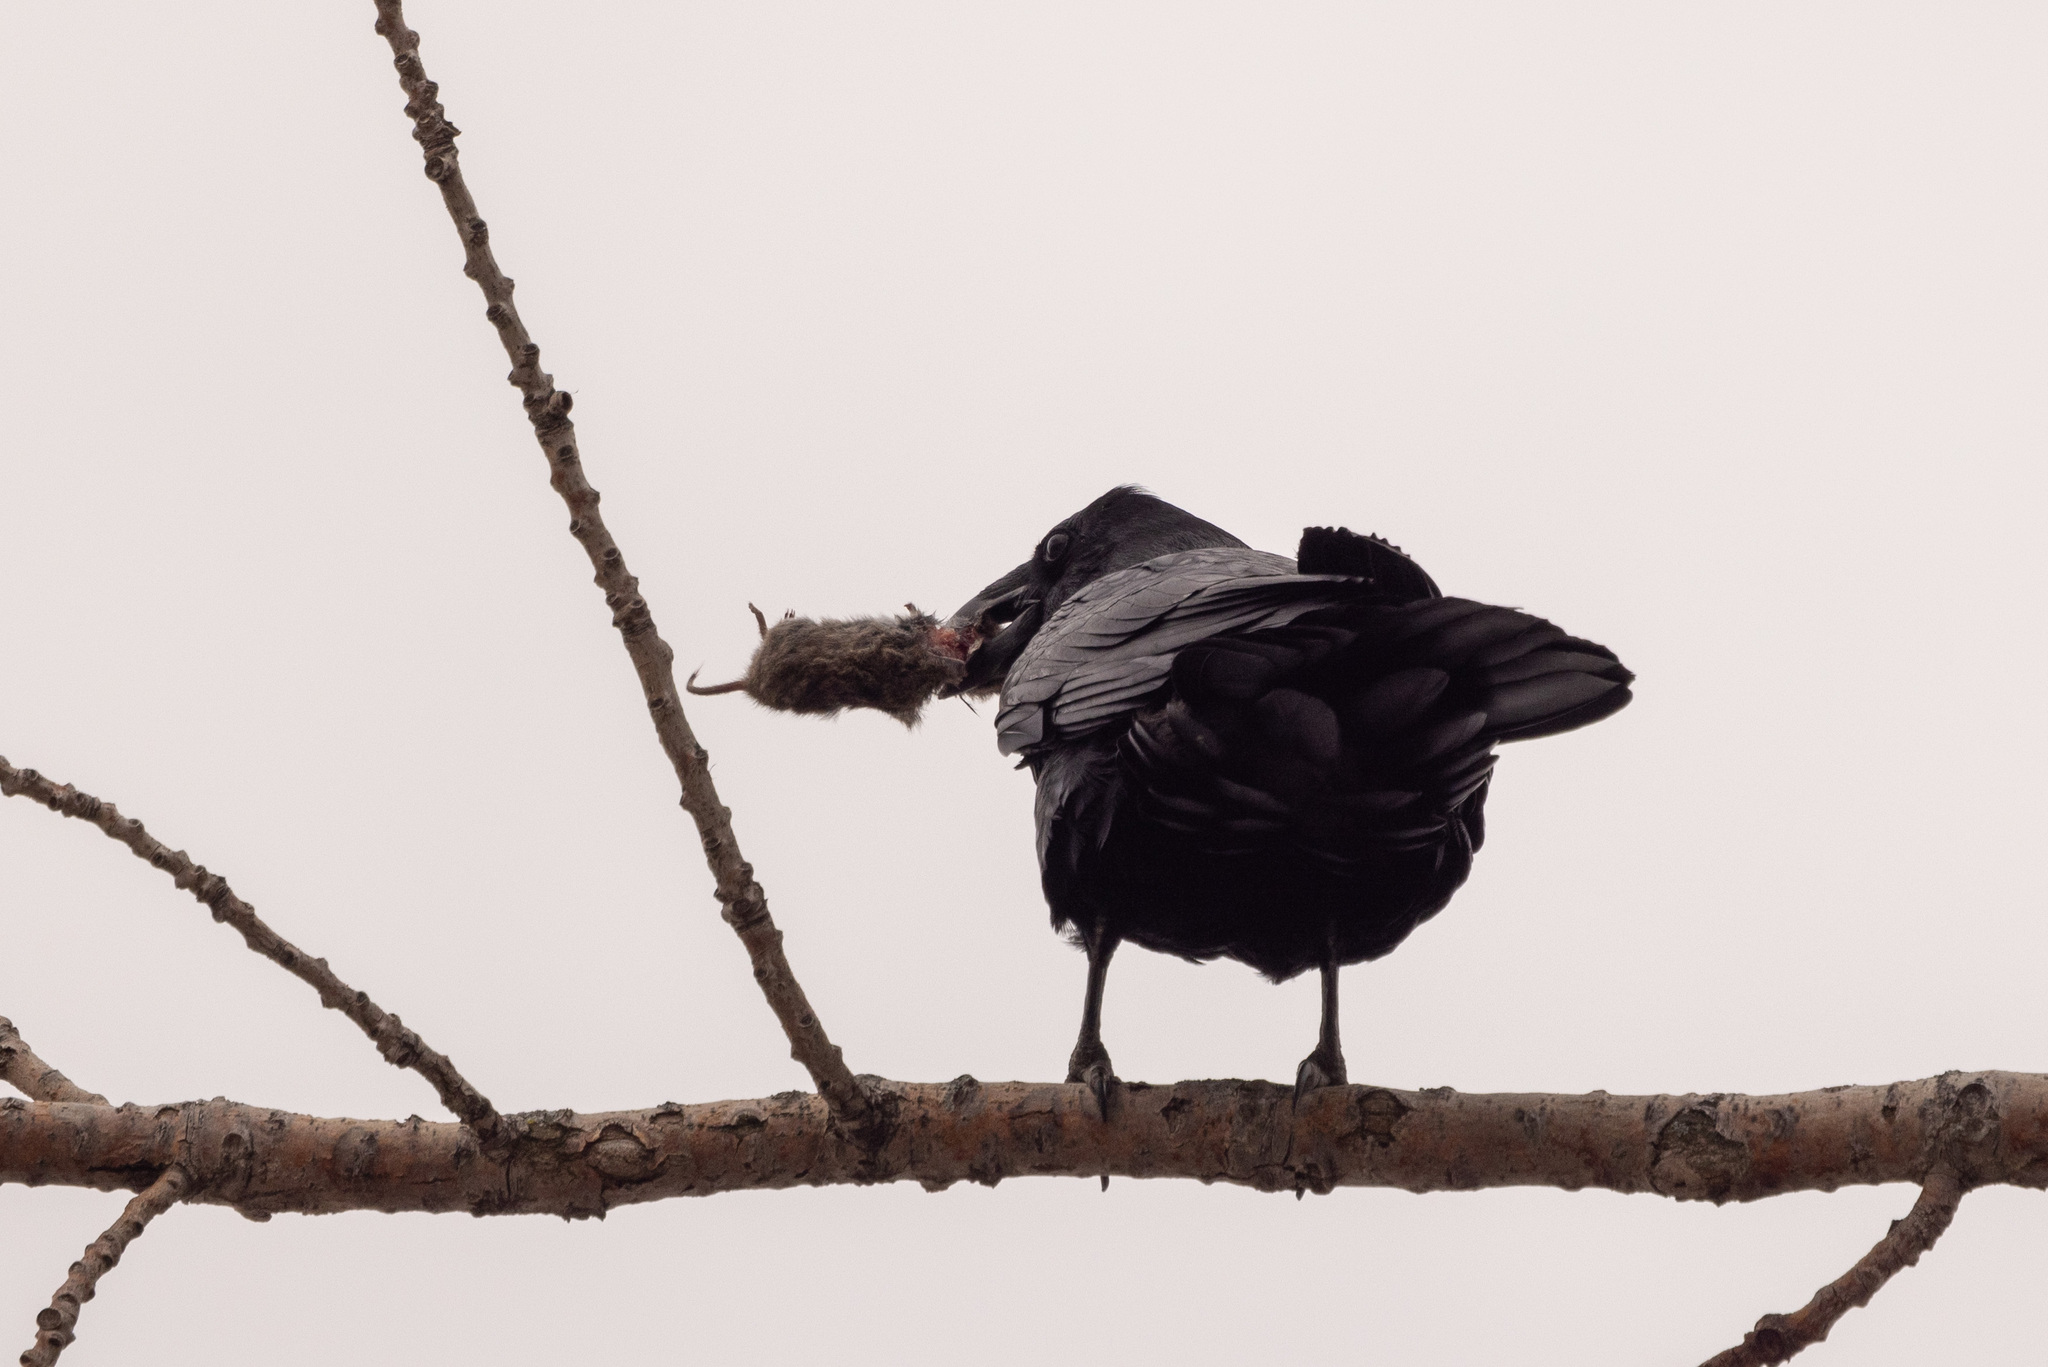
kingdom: Animalia
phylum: Chordata
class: Aves
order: Passeriformes
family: Corvidae
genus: Corvus
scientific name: Corvus corax
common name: Common raven
